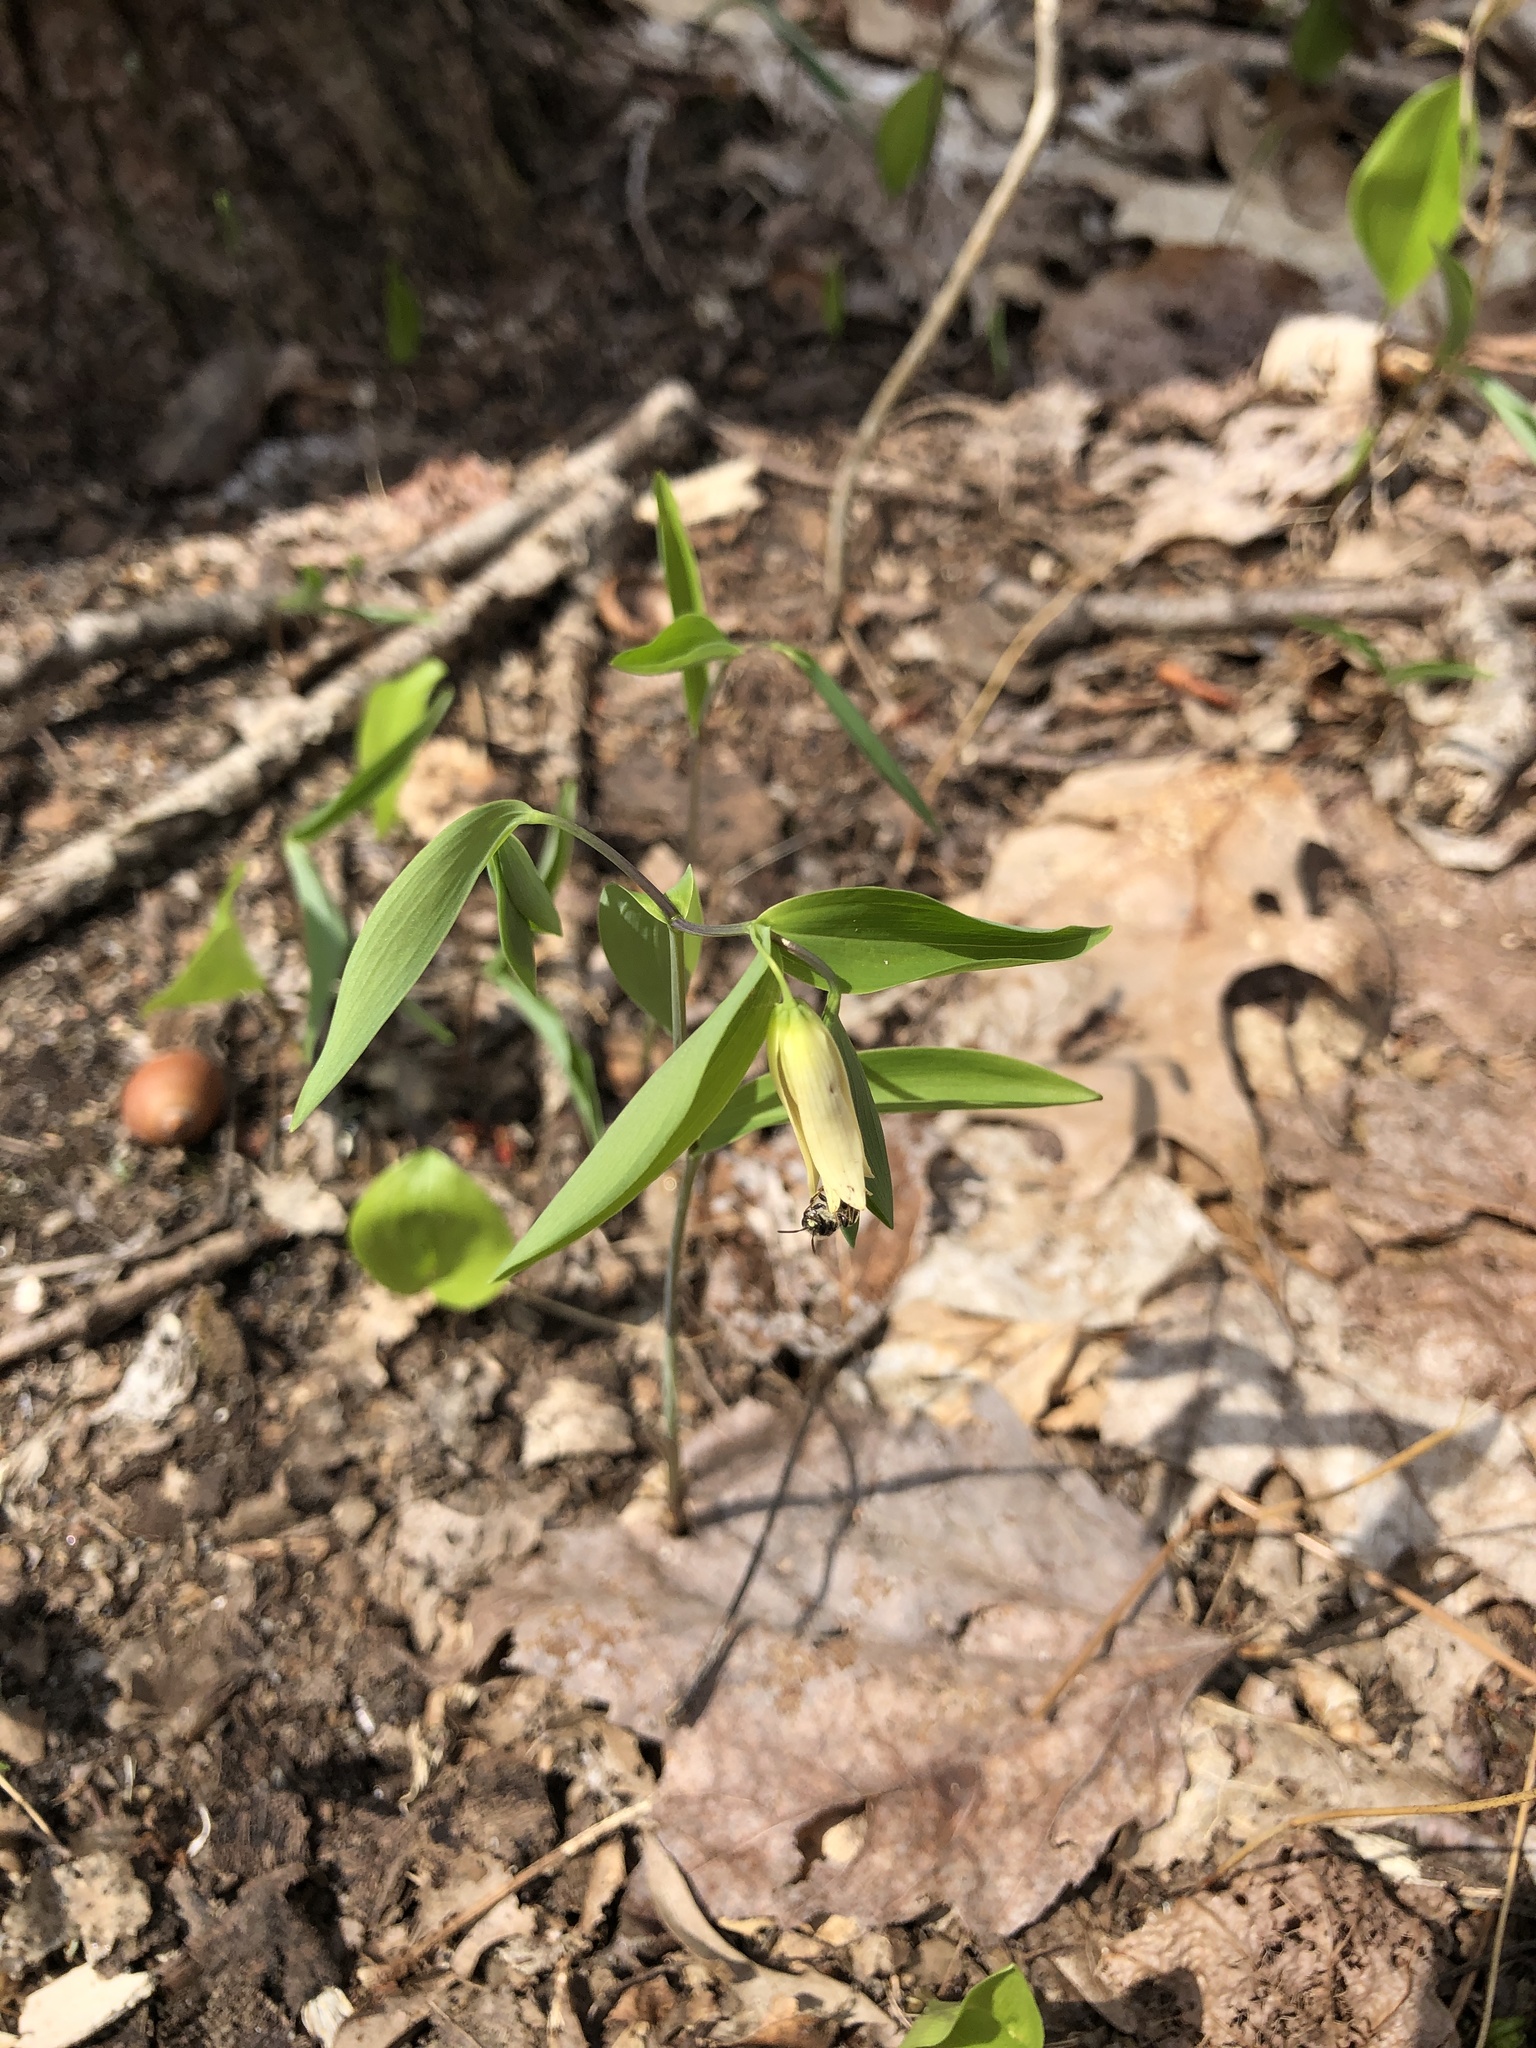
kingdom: Plantae
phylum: Tracheophyta
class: Liliopsida
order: Liliales
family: Colchicaceae
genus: Uvularia
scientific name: Uvularia sessilifolia
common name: Straw-lily
